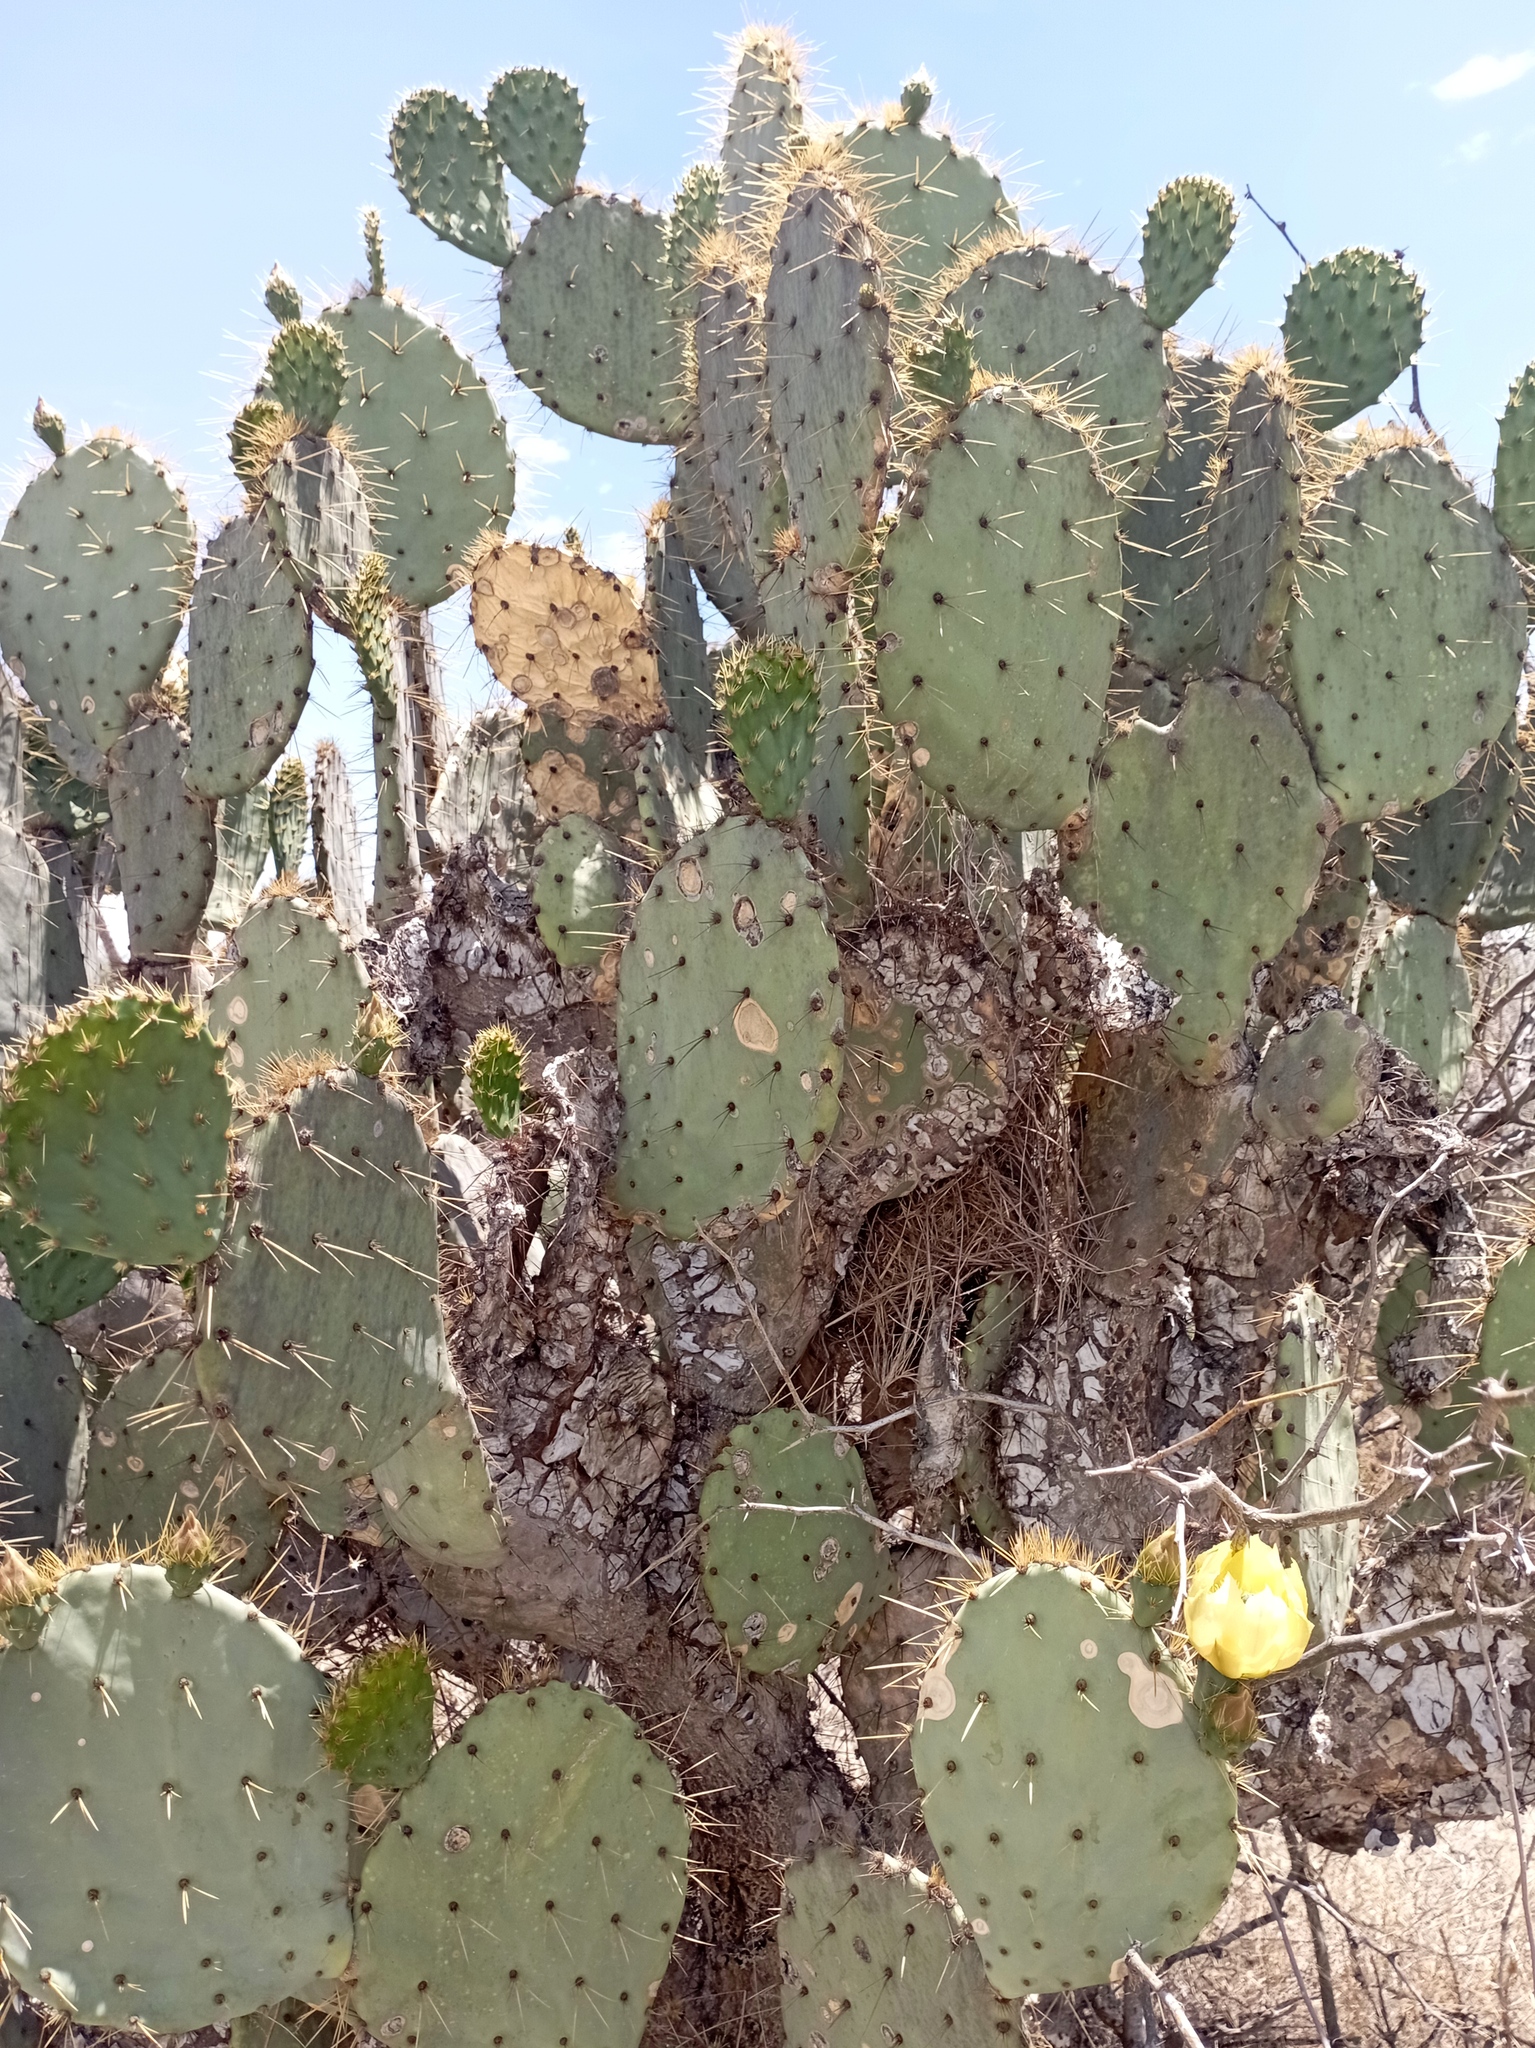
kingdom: Plantae
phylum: Tracheophyta
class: Magnoliopsida
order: Caryophyllales
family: Cactaceae
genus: Opuntia
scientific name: Opuntia phaeacantha
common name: New mexico prickly-pear
